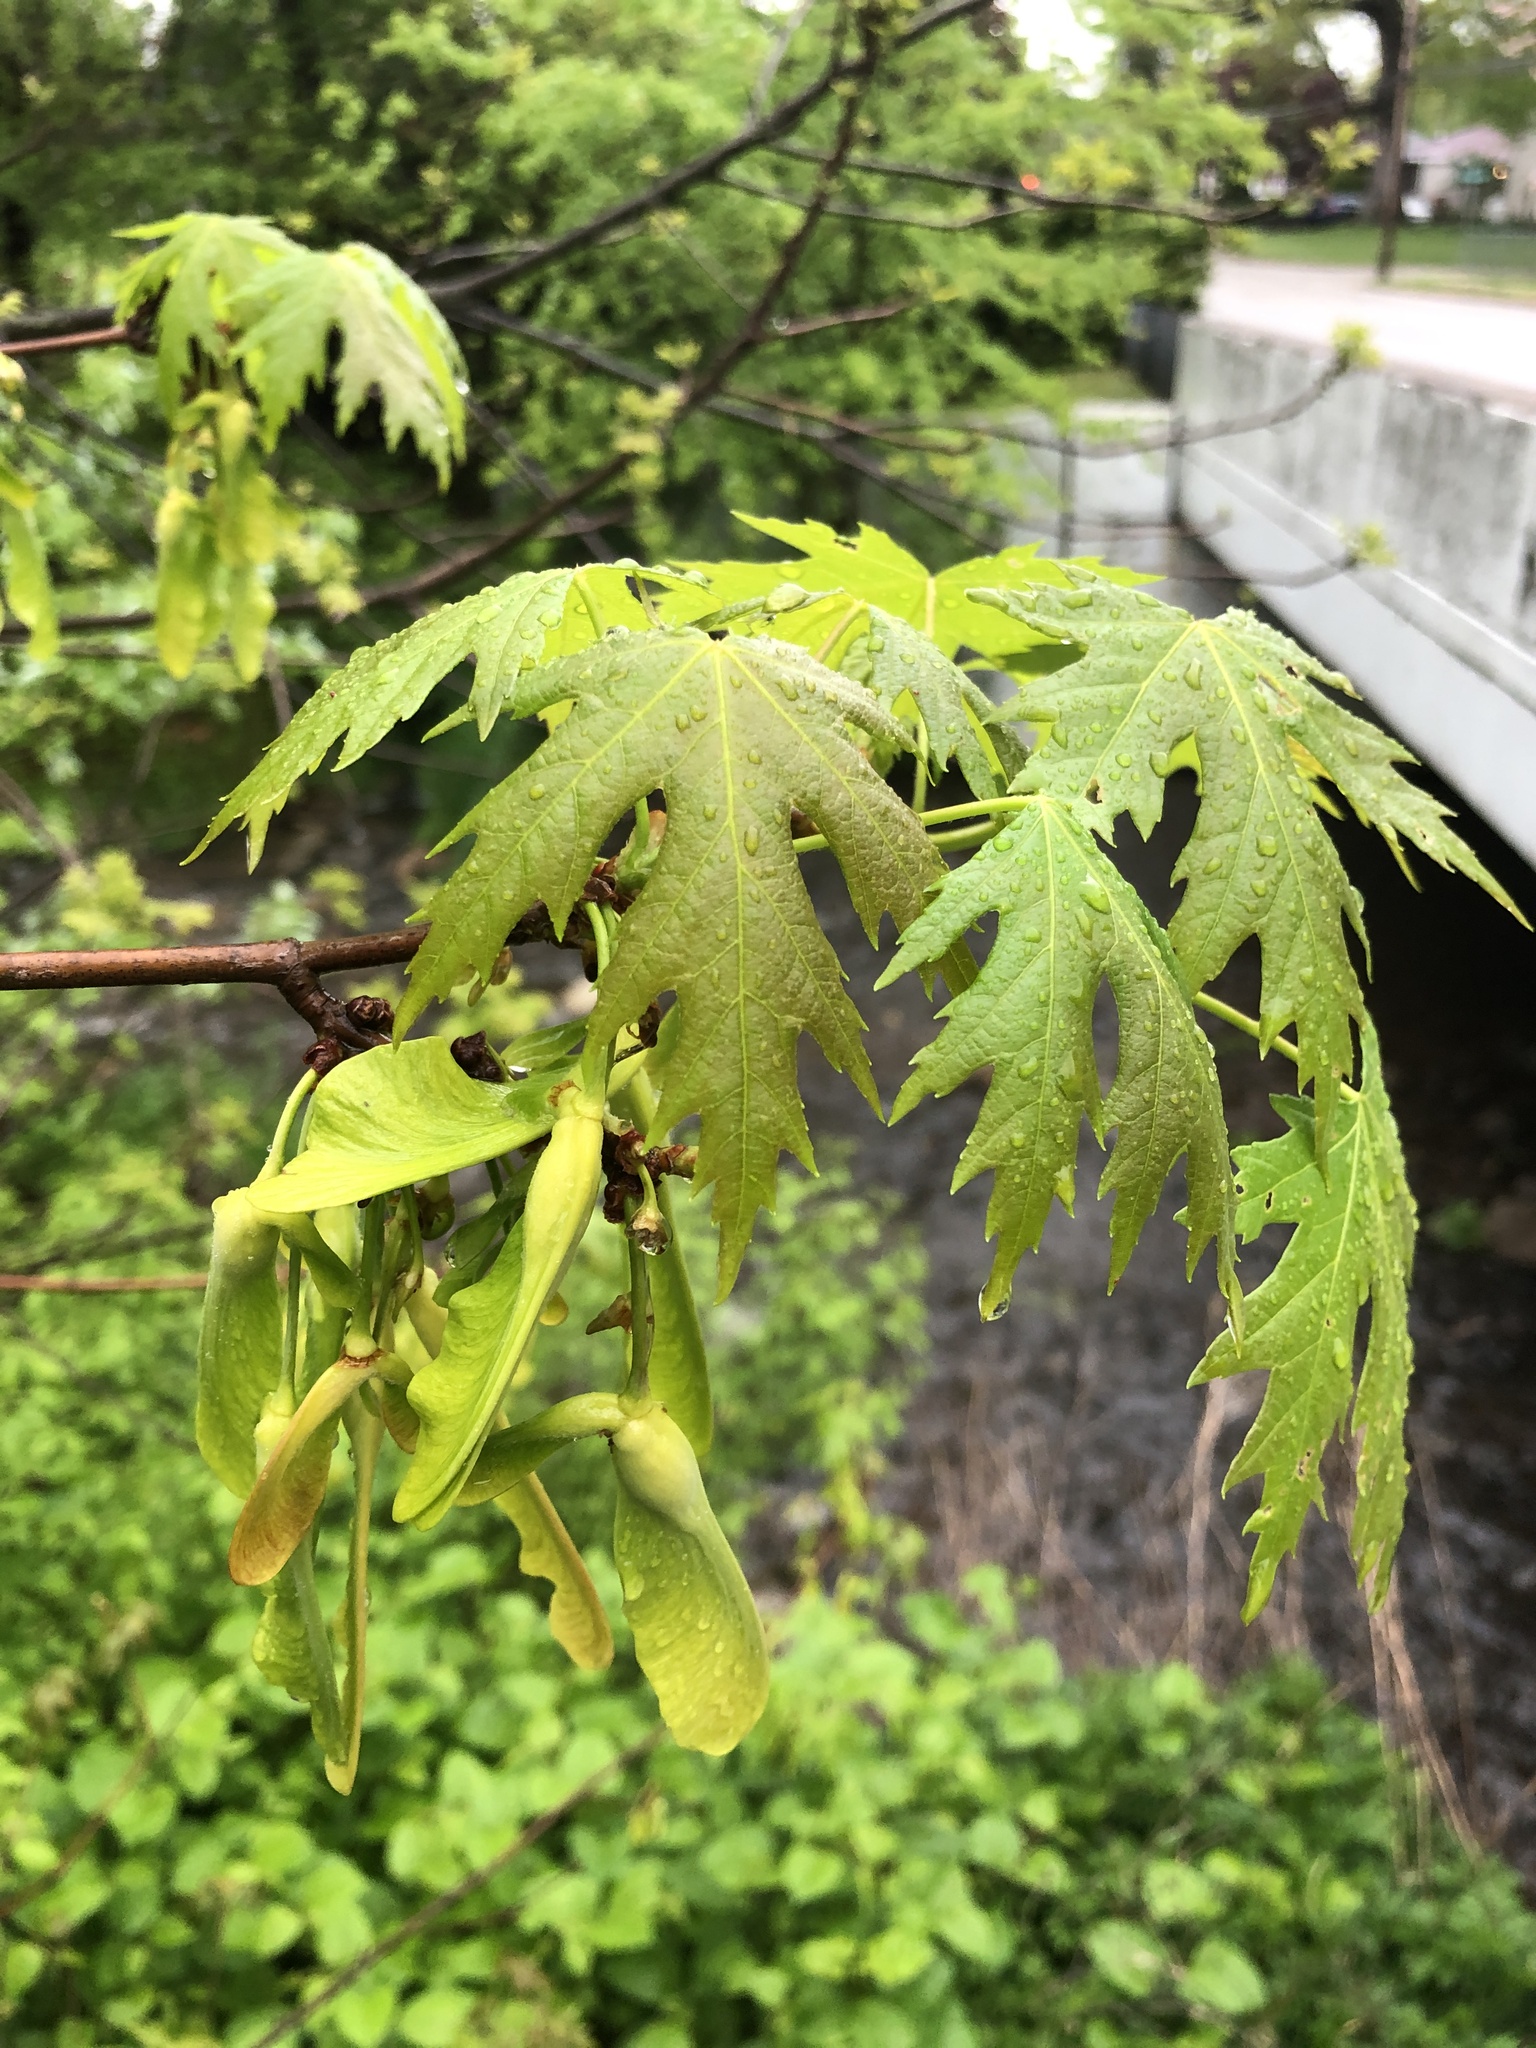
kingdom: Plantae
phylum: Tracheophyta
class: Magnoliopsida
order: Sapindales
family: Sapindaceae
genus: Acer
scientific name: Acer saccharinum
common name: Silver maple
